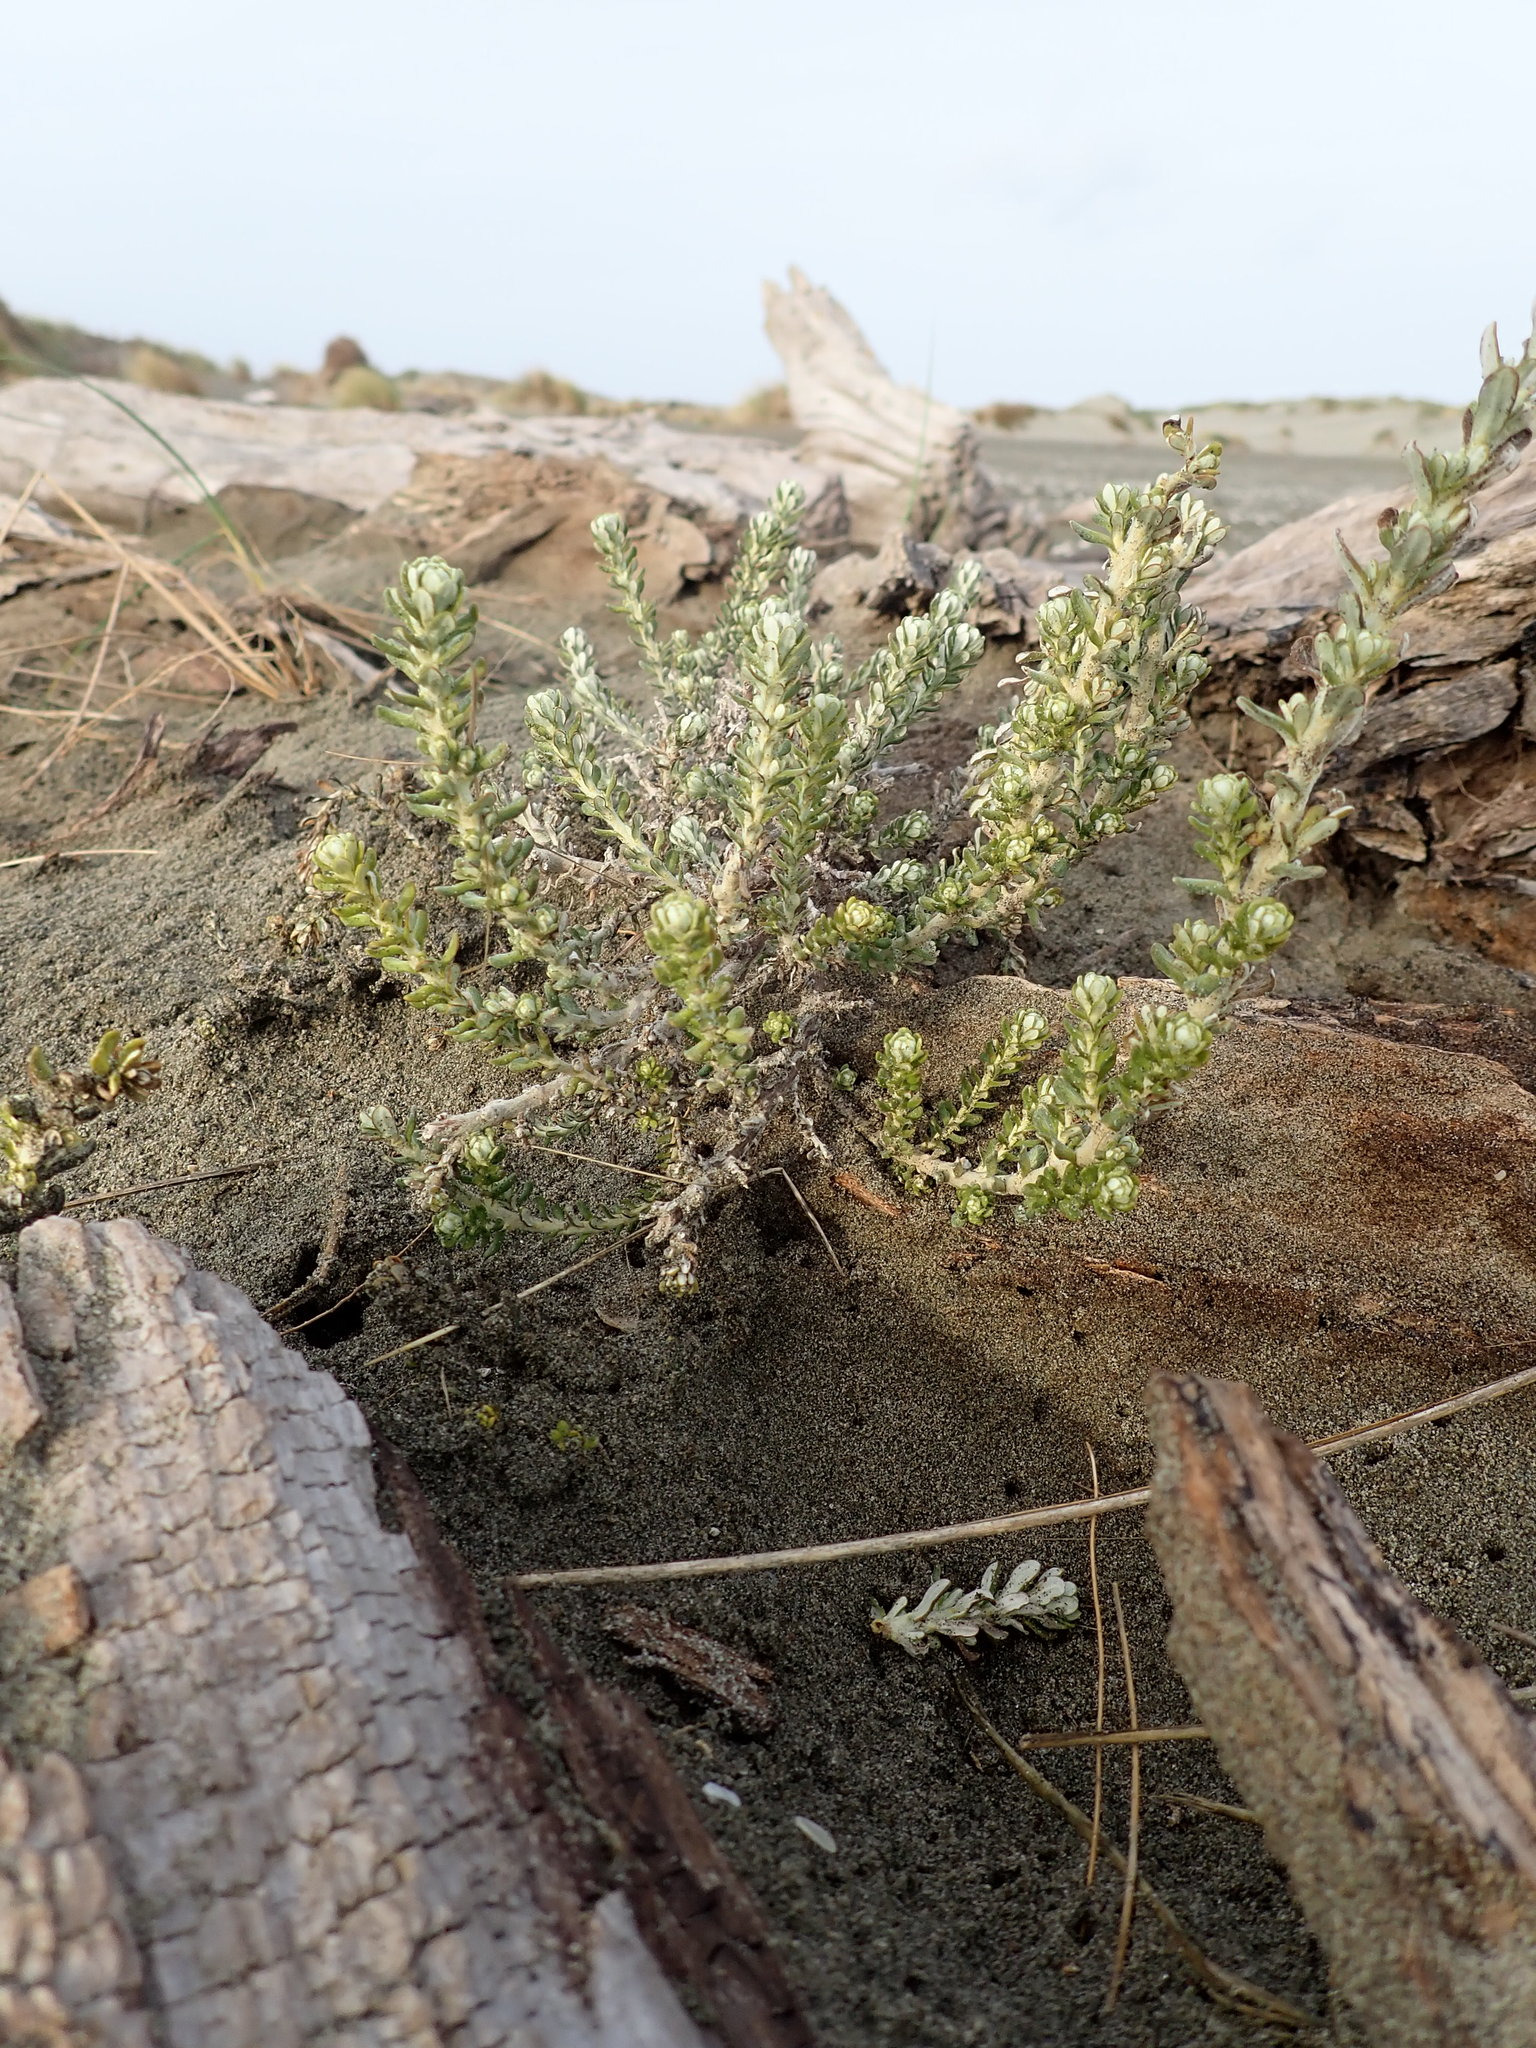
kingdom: Plantae
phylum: Tracheophyta
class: Magnoliopsida
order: Asterales
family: Asteraceae
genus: Ozothamnus
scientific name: Ozothamnus leptophyllus
